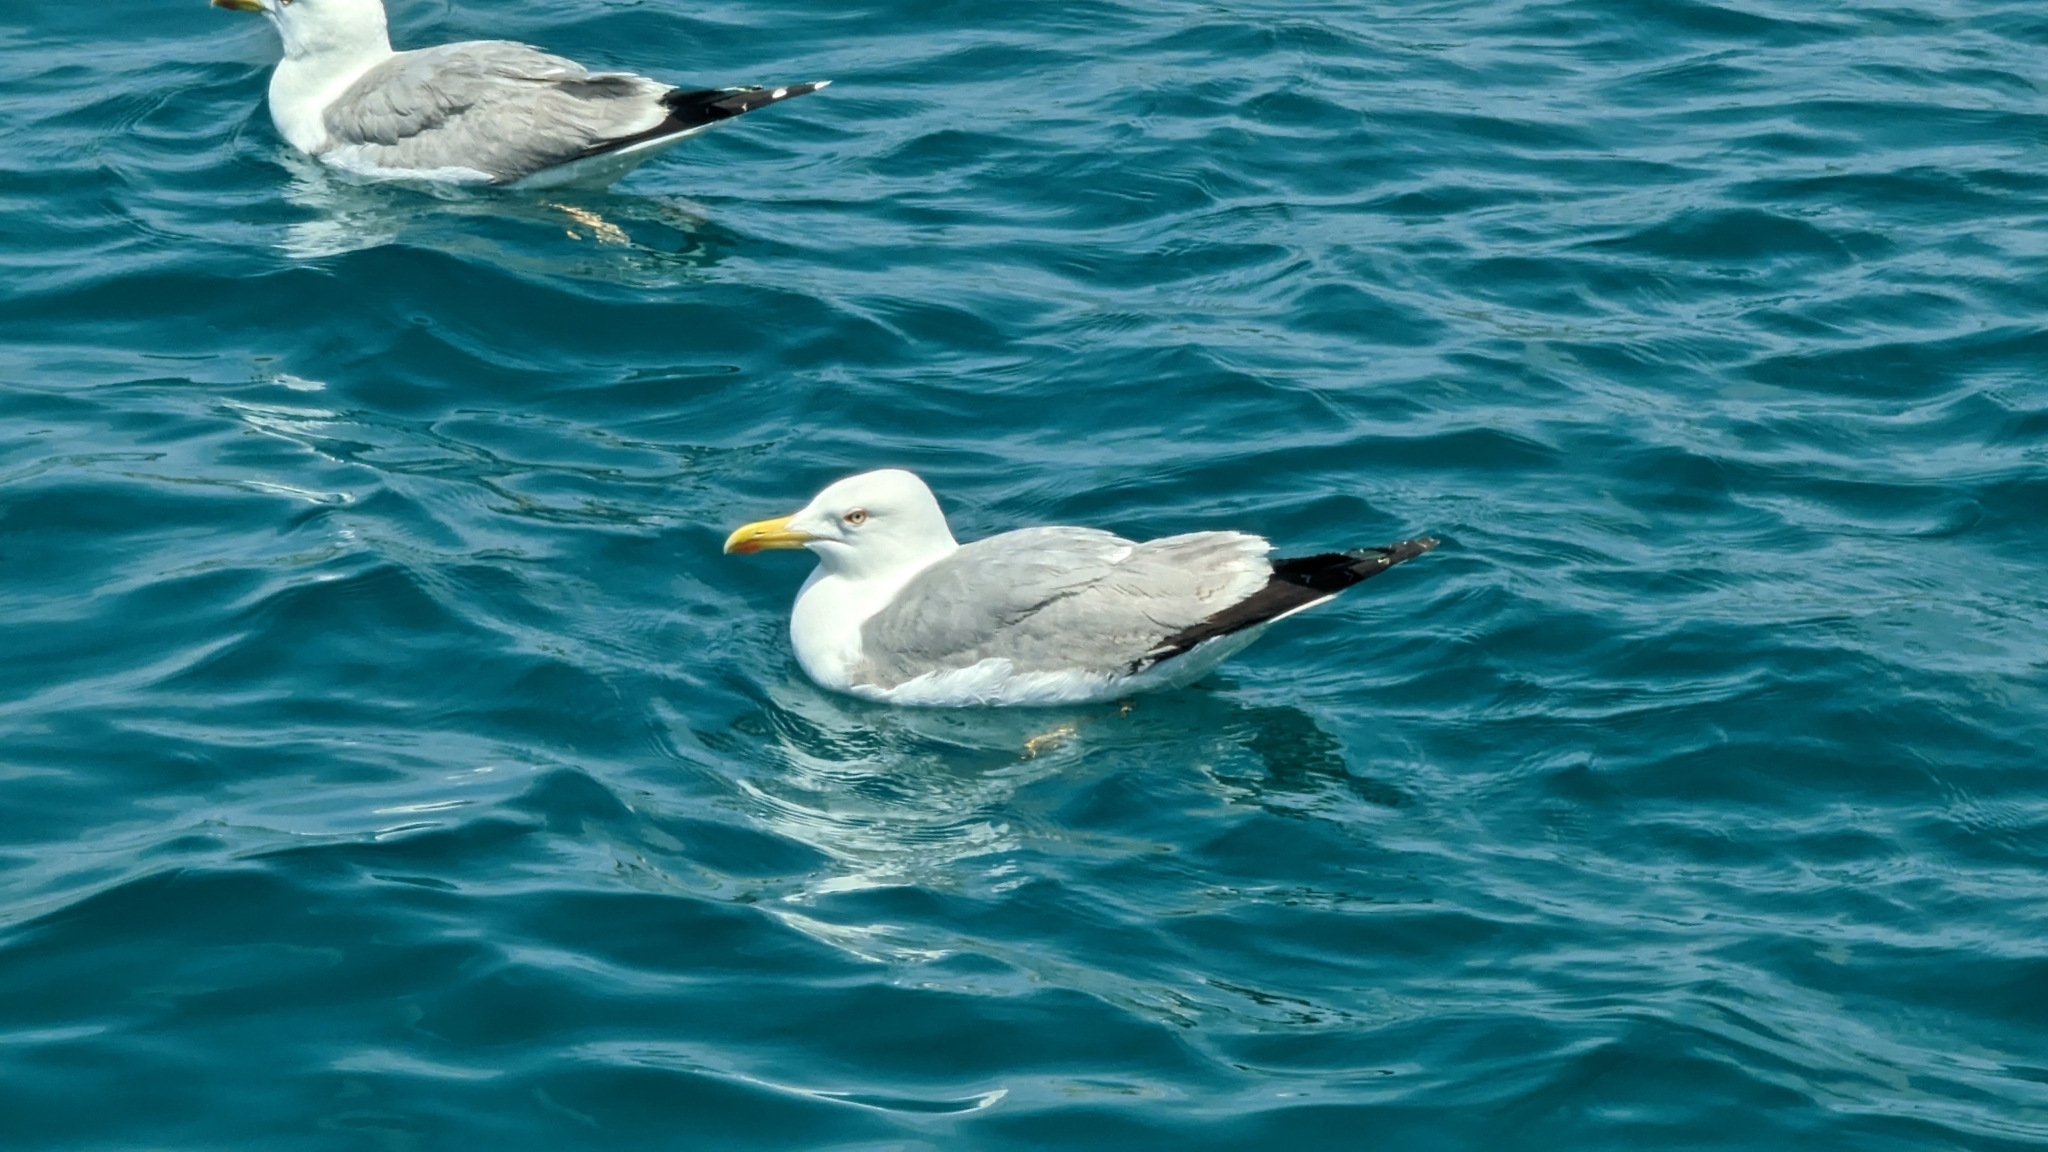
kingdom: Animalia
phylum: Chordata
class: Aves
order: Charadriiformes
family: Laridae
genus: Larus
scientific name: Larus michahellis
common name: Yellow-legged gull
